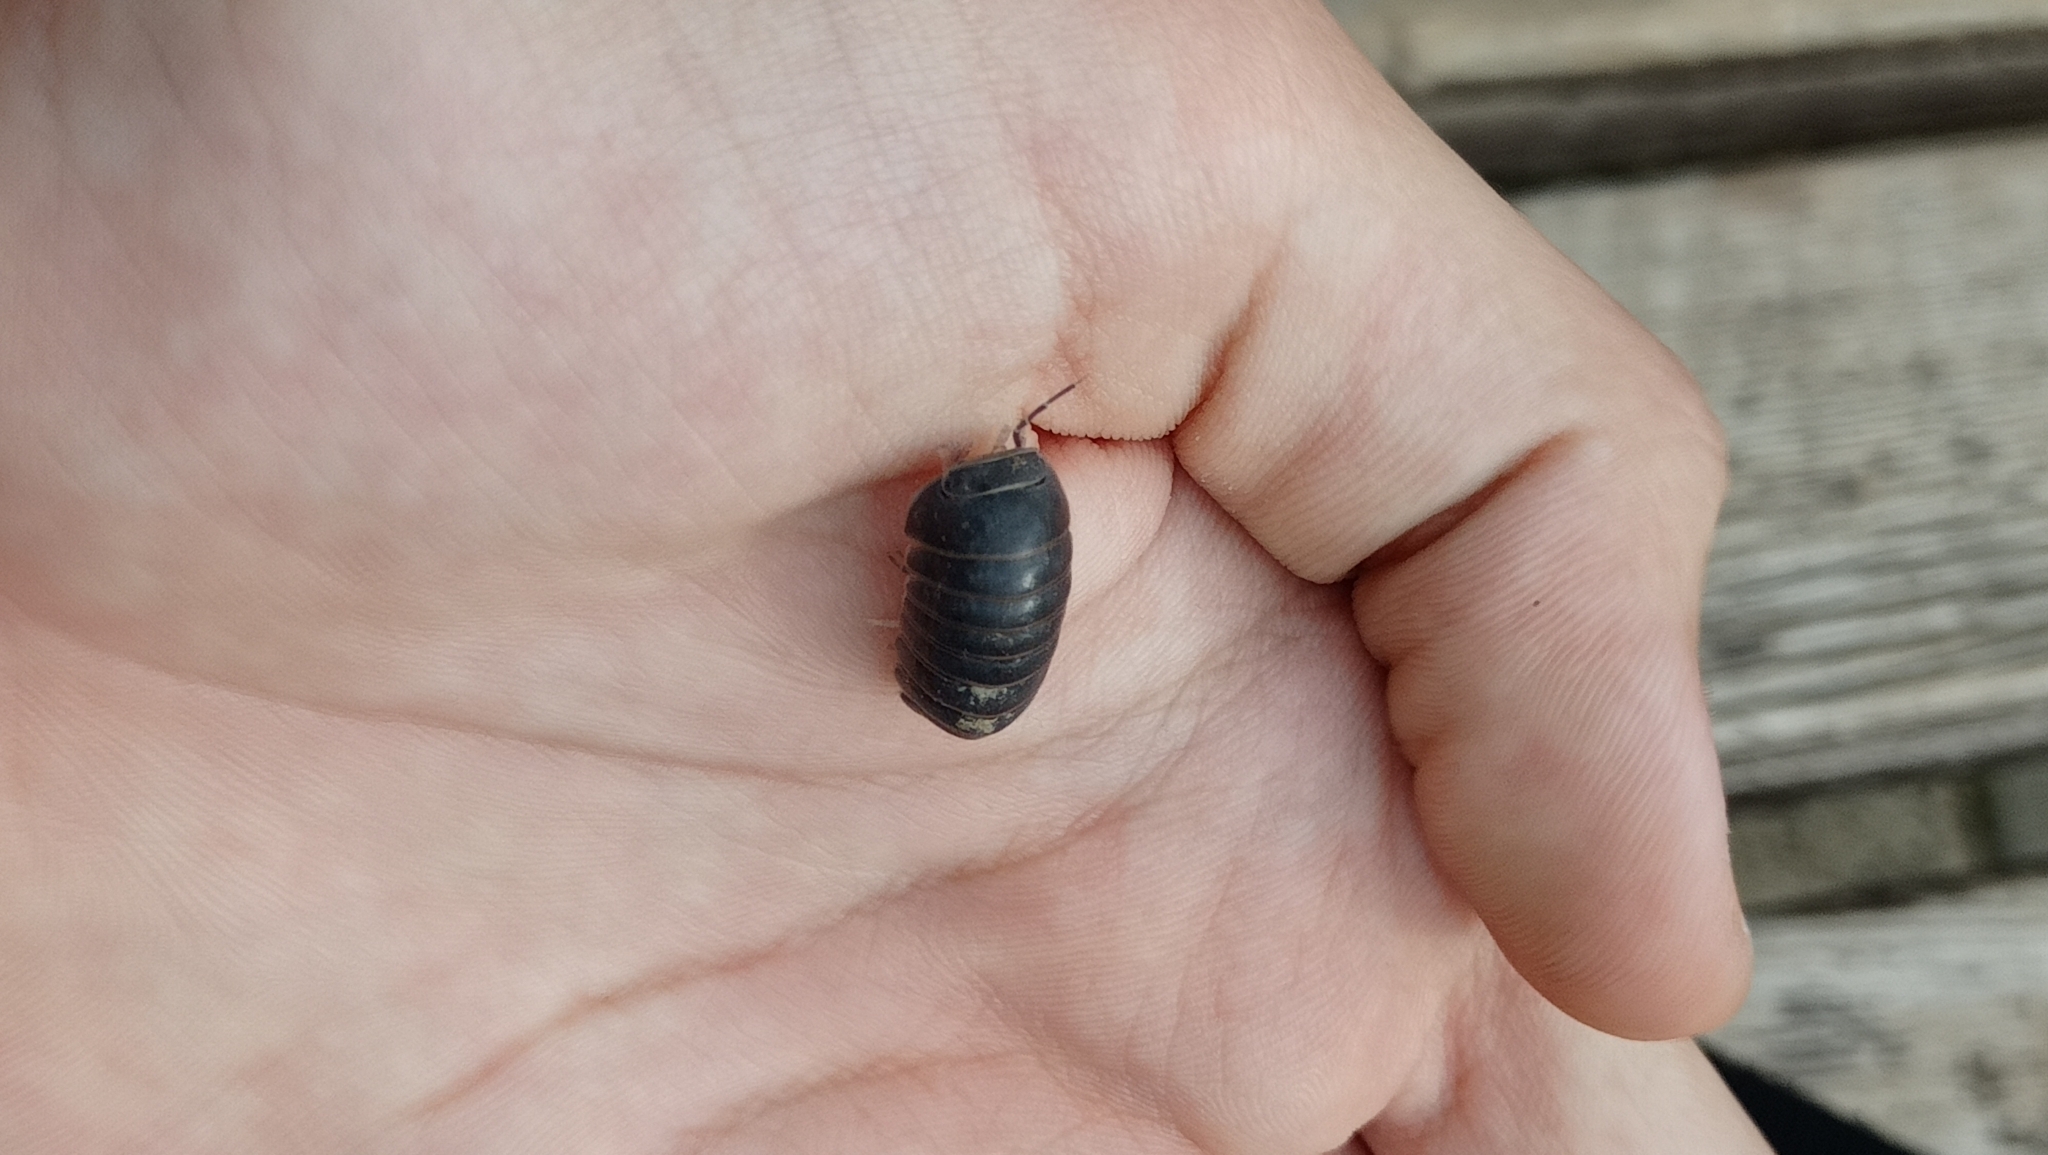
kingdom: Animalia
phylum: Arthropoda
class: Malacostraca
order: Isopoda
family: Armadillidae
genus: Armadillo
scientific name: Armadillo officinalis
